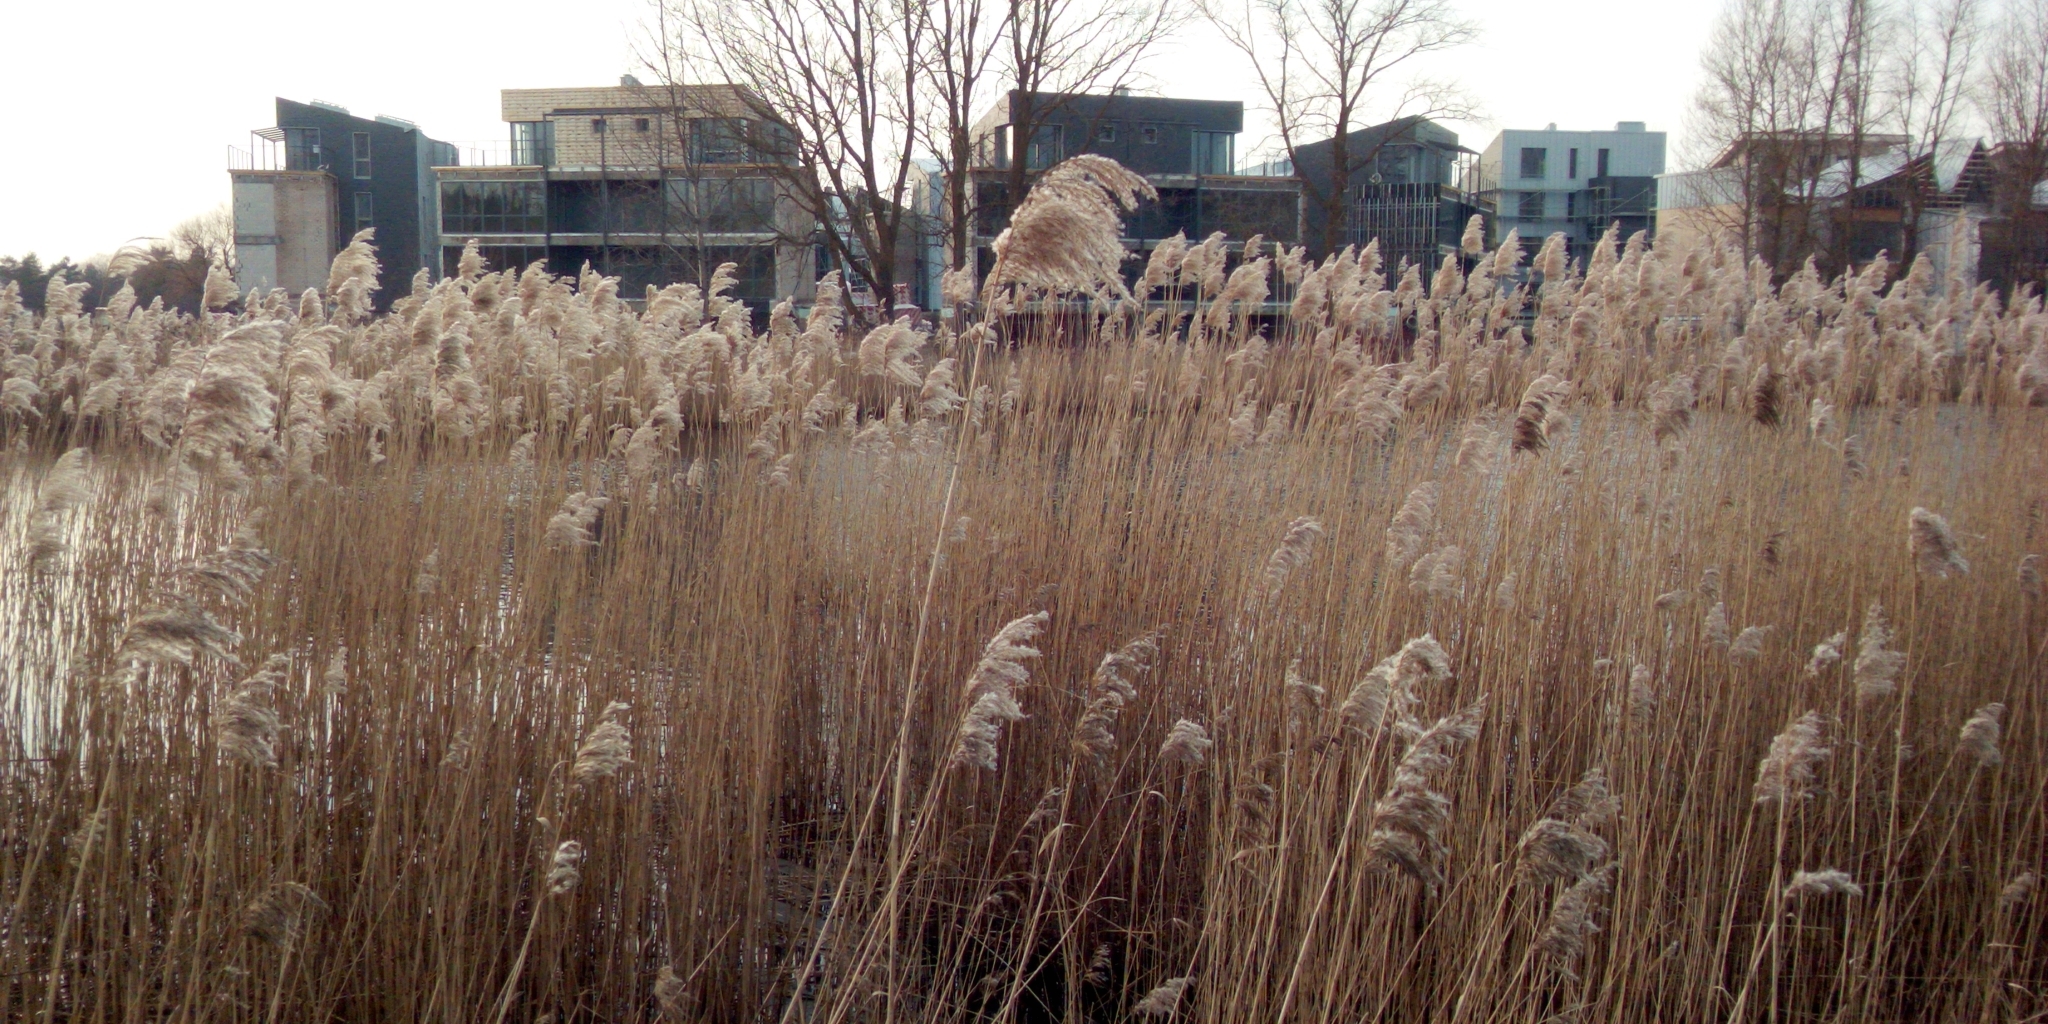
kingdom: Plantae
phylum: Tracheophyta
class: Liliopsida
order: Poales
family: Poaceae
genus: Phragmites
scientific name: Phragmites australis
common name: Common reed
